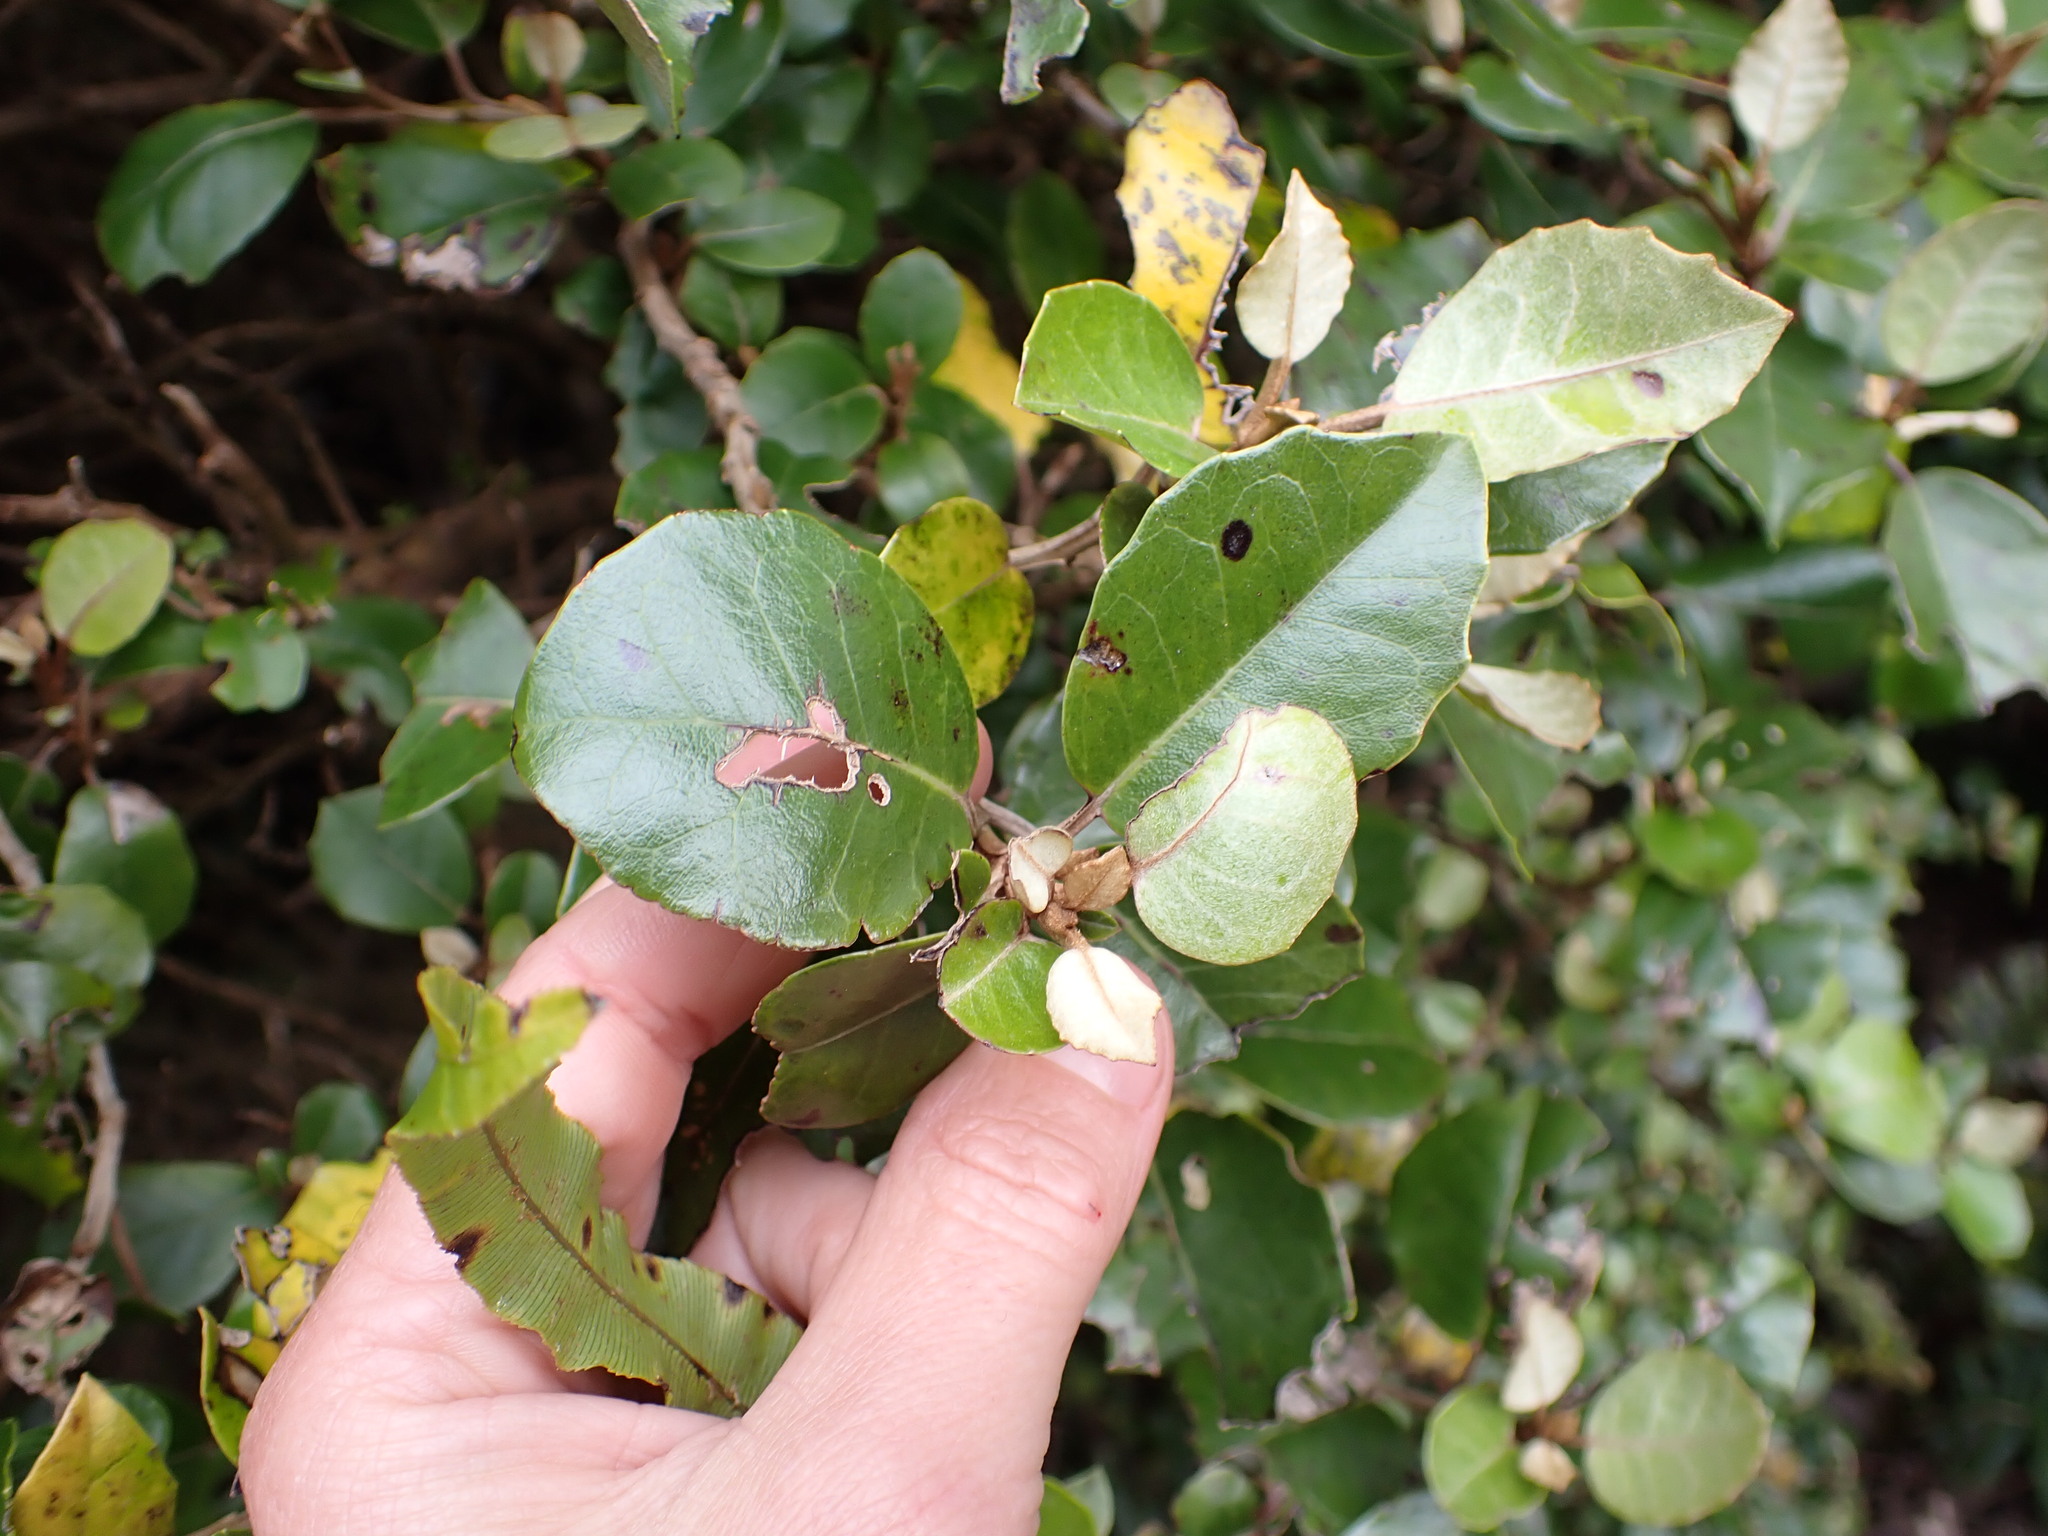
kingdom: Plantae
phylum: Tracheophyta
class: Magnoliopsida
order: Asterales
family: Asteraceae
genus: Olearia
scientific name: Olearia arborescens
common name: Glossy tree daisy
